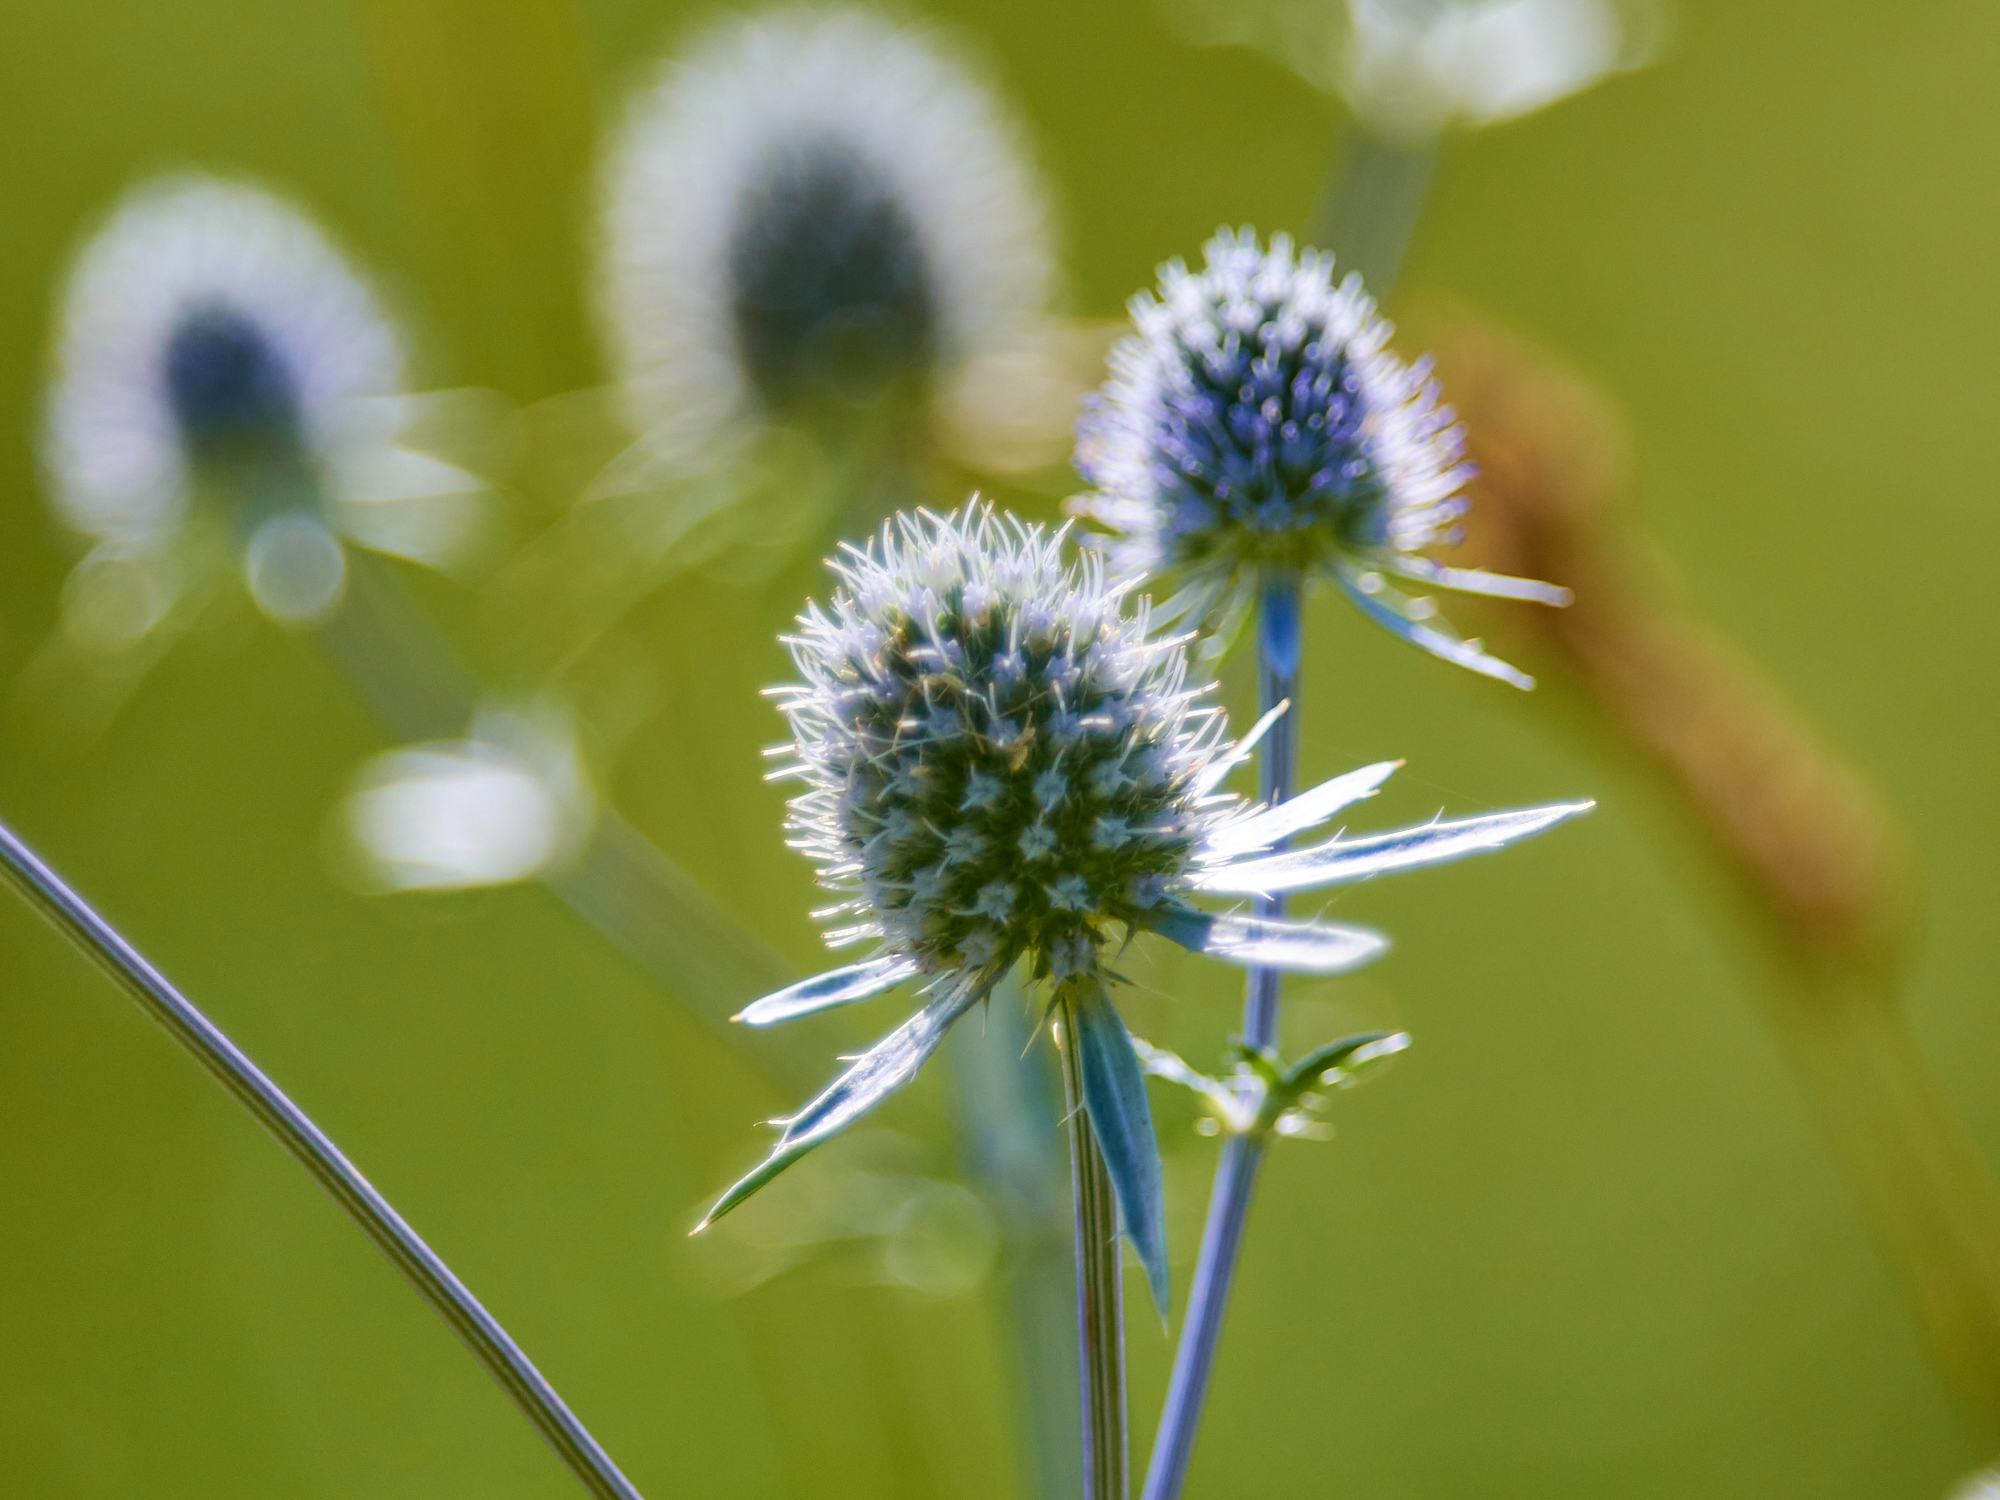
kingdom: Plantae
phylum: Tracheophyta
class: Magnoliopsida
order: Apiales
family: Apiaceae
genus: Eryngium
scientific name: Eryngium planum
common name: Blue eryngo
